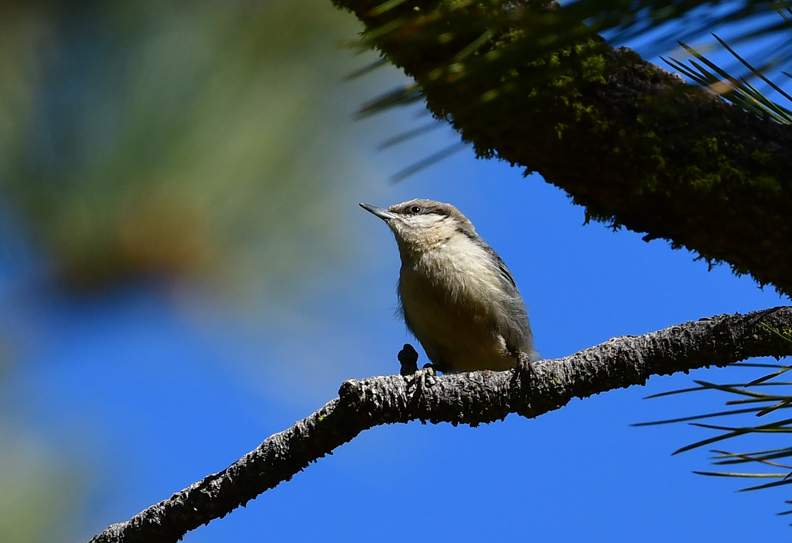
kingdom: Animalia
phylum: Chordata
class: Aves
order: Passeriformes
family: Sittidae
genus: Sitta
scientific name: Sitta pygmaea
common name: Pygmy nuthatch
